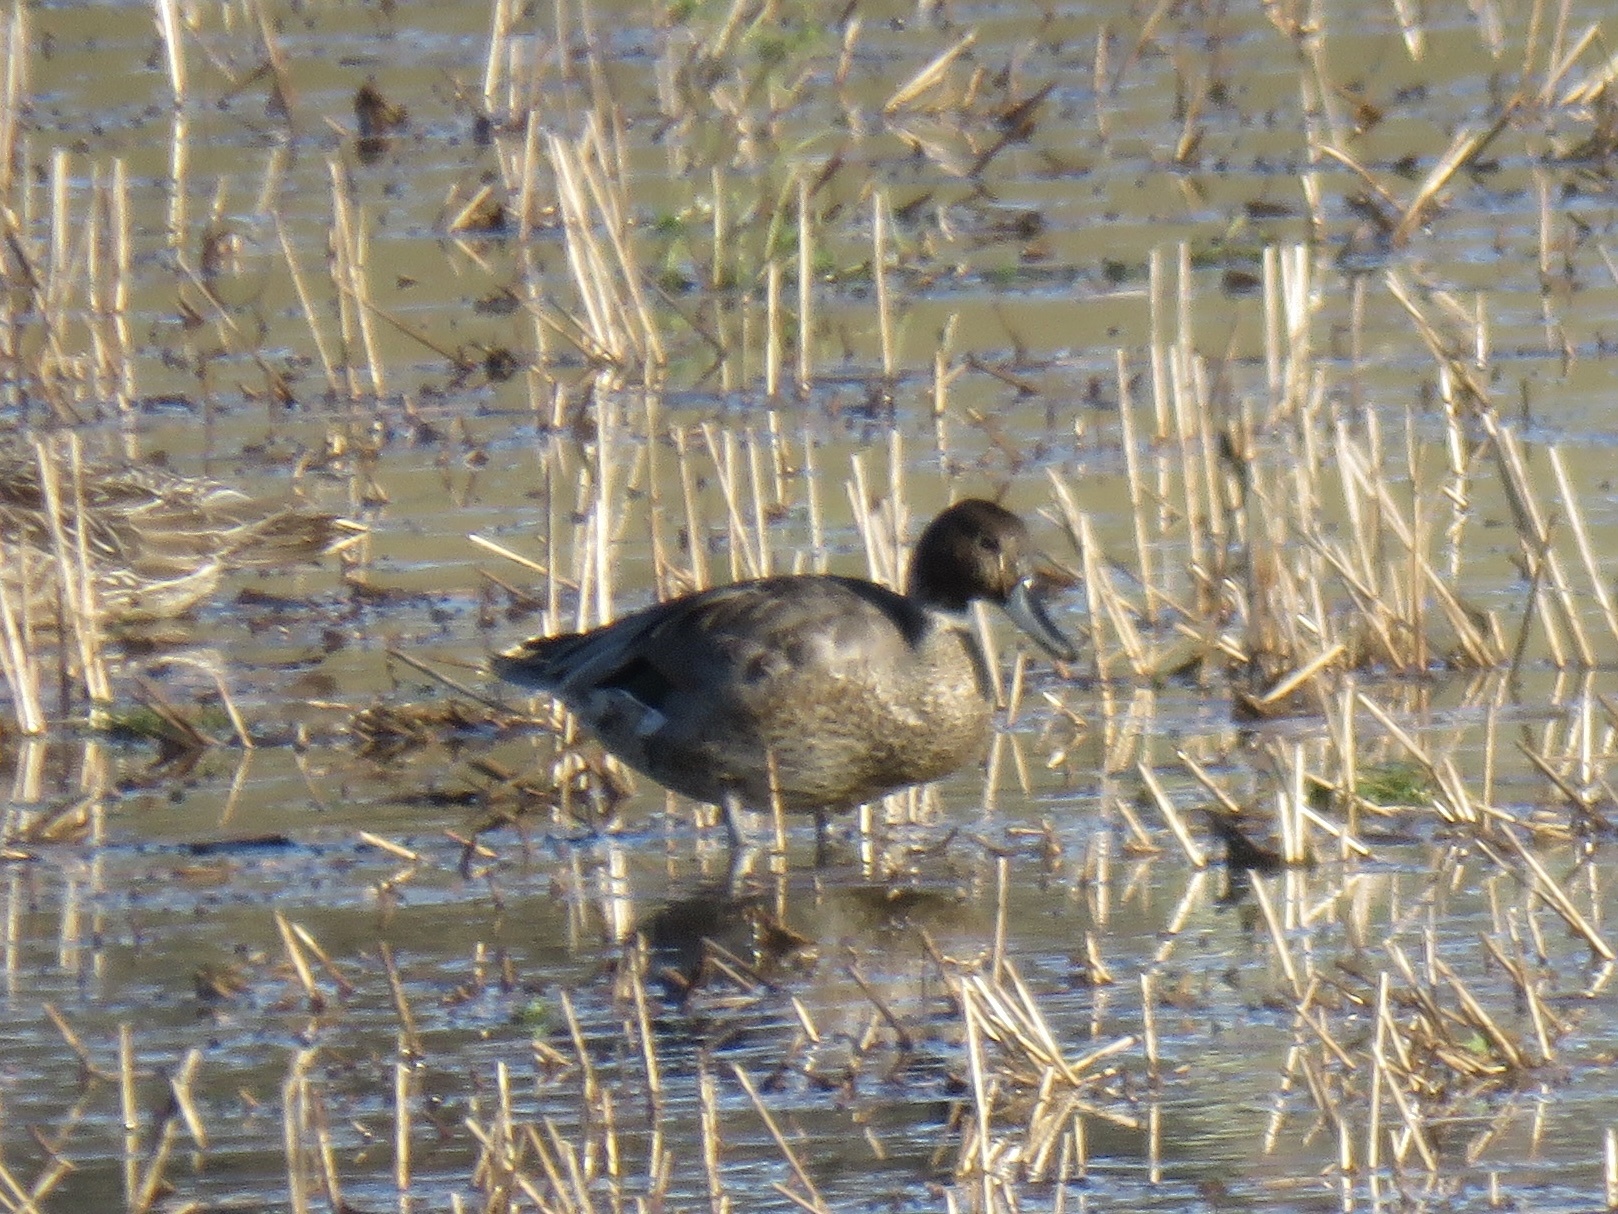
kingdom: Animalia
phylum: Chordata
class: Aves
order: Anseriformes
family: Anatidae
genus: Mareca
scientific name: Mareca strepera
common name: Gadwall
